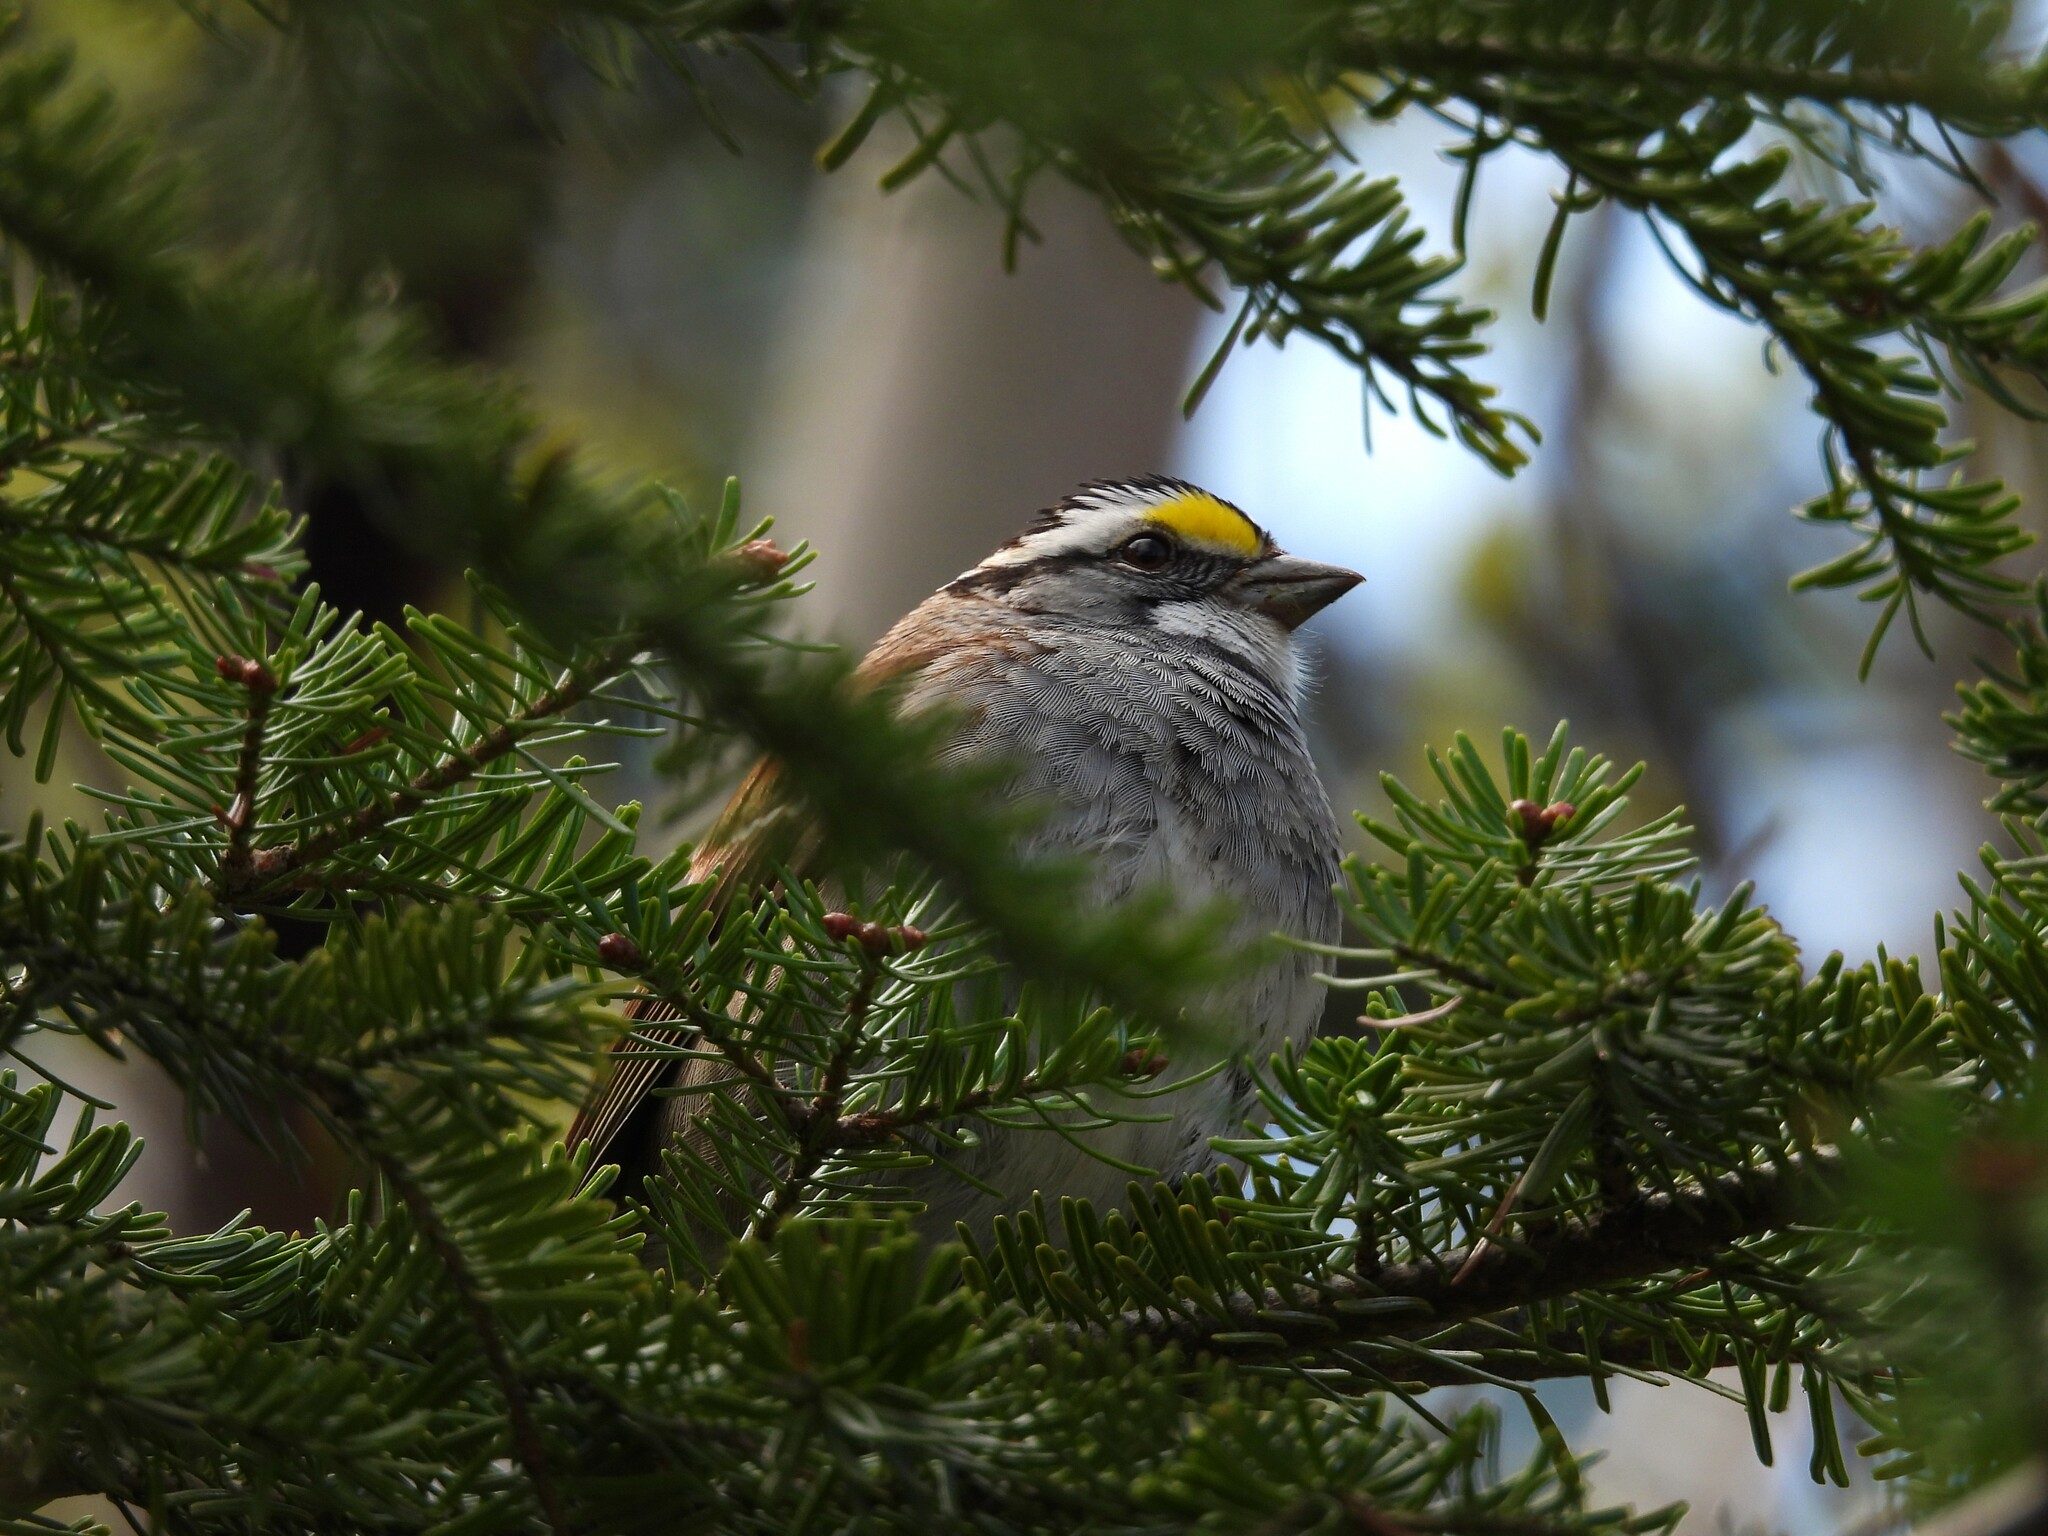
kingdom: Animalia
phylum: Chordata
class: Aves
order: Passeriformes
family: Passerellidae
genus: Zonotrichia
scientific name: Zonotrichia albicollis
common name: White-throated sparrow
